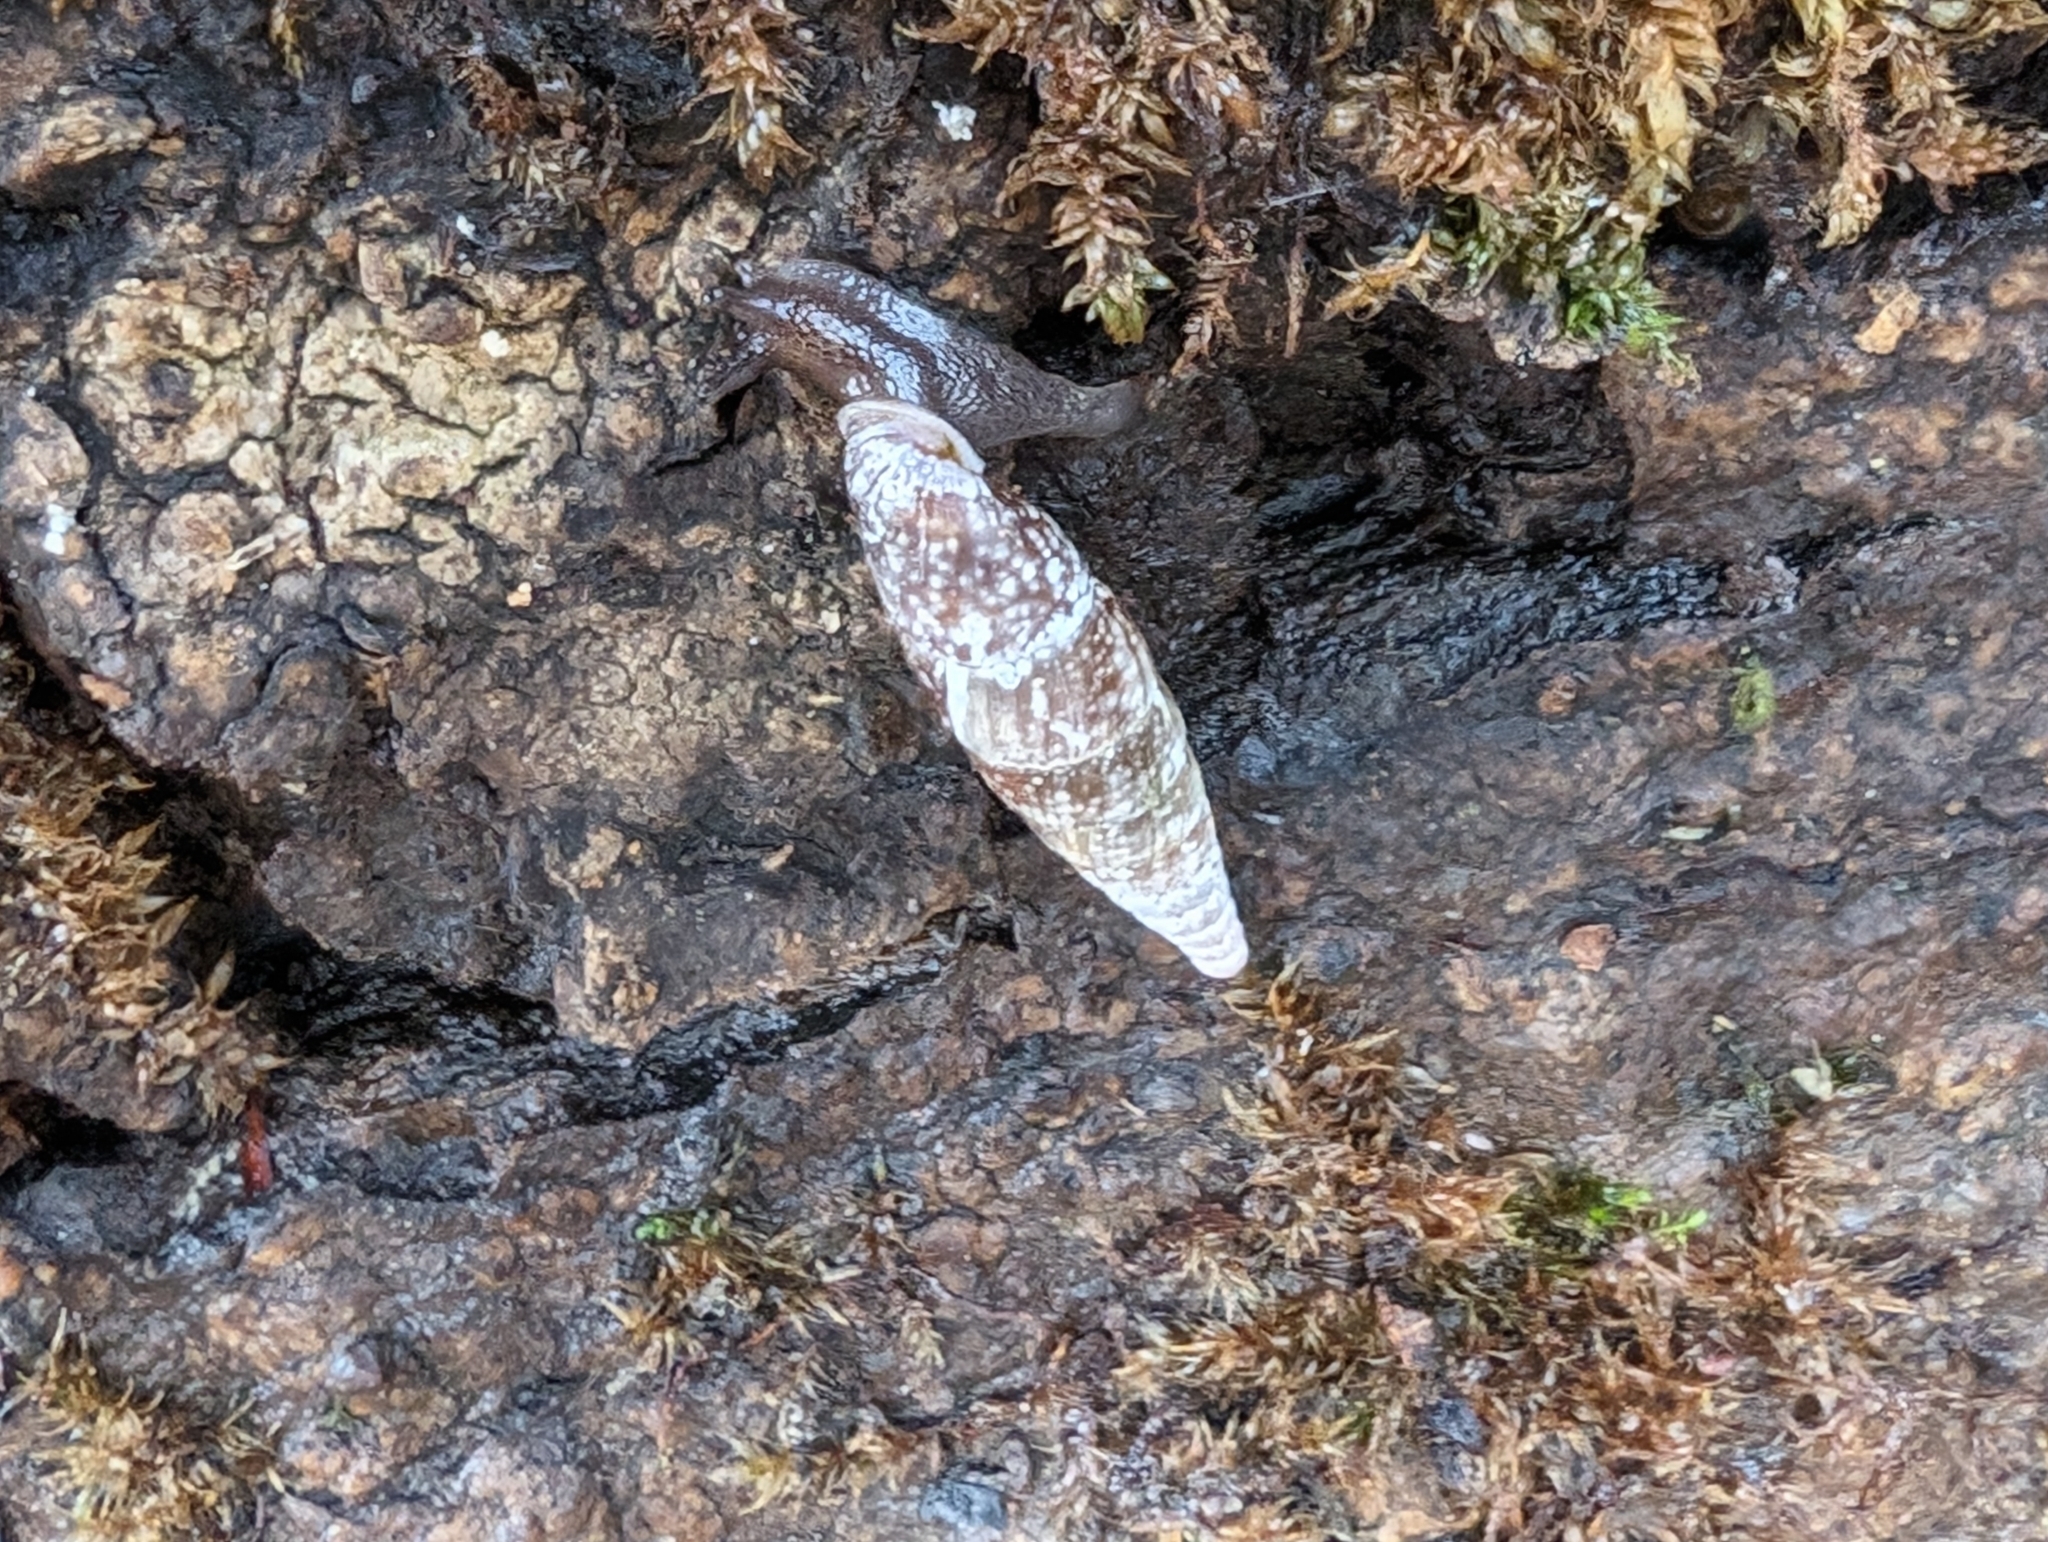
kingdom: Animalia
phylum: Mollusca
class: Gastropoda
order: Stylommatophora
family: Clausiliidae
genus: Cochlodina
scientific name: Cochlodina laminata
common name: Plaited door snail
